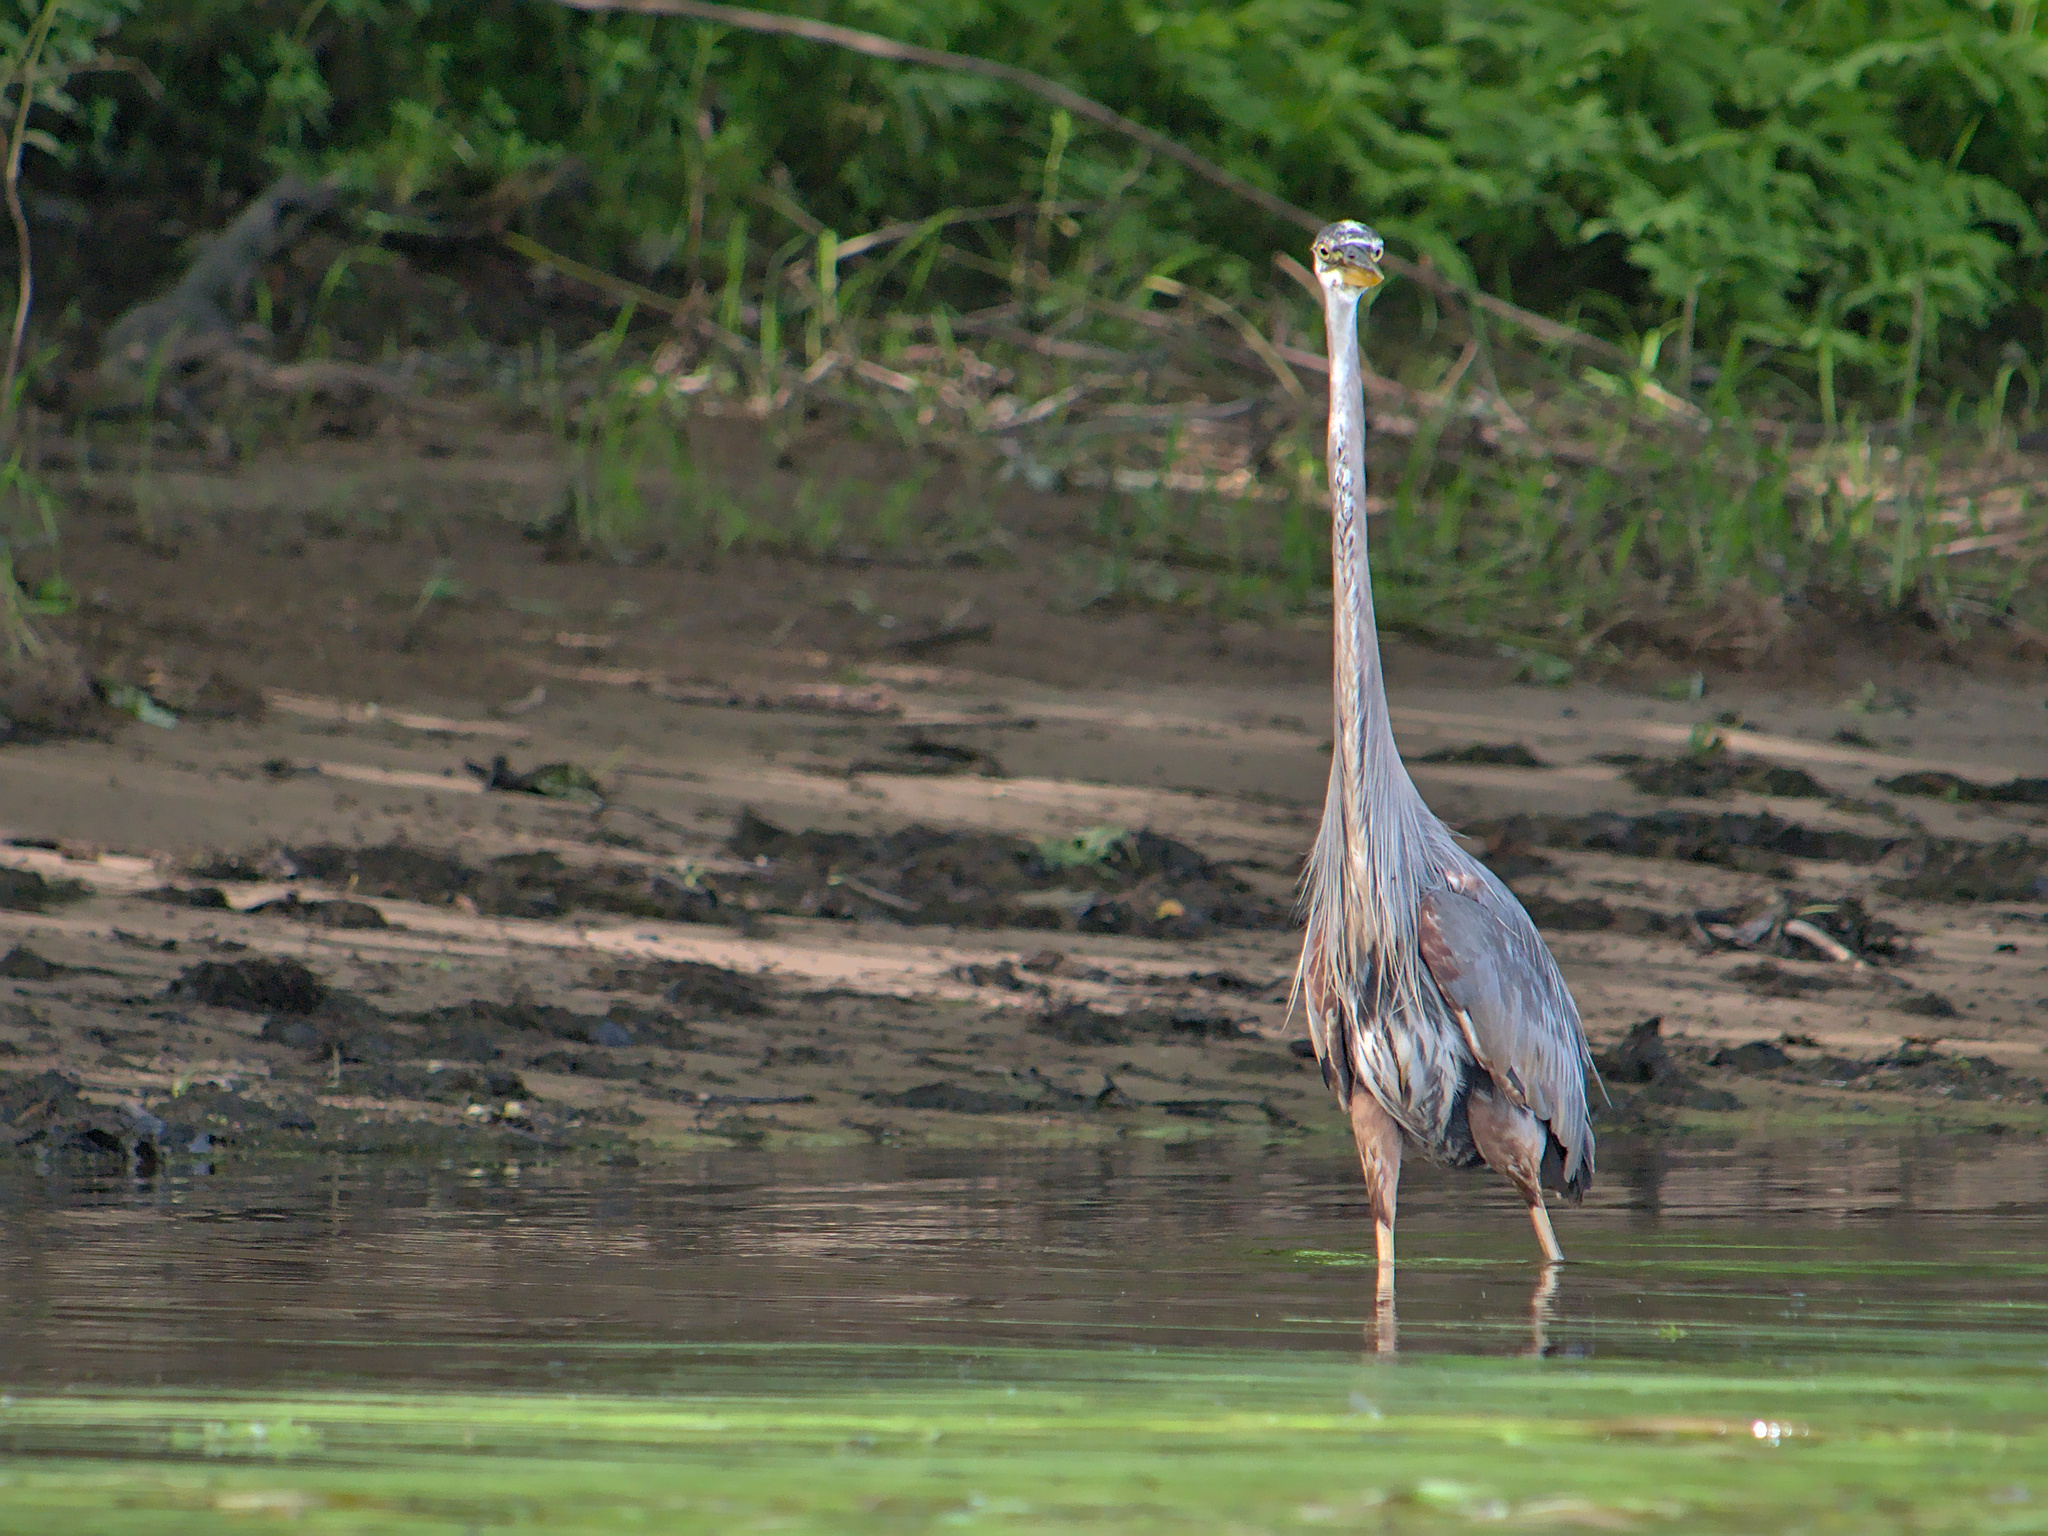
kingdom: Animalia
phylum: Chordata
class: Aves
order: Pelecaniformes
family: Ardeidae
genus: Ardea
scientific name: Ardea herodias
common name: Great blue heron
